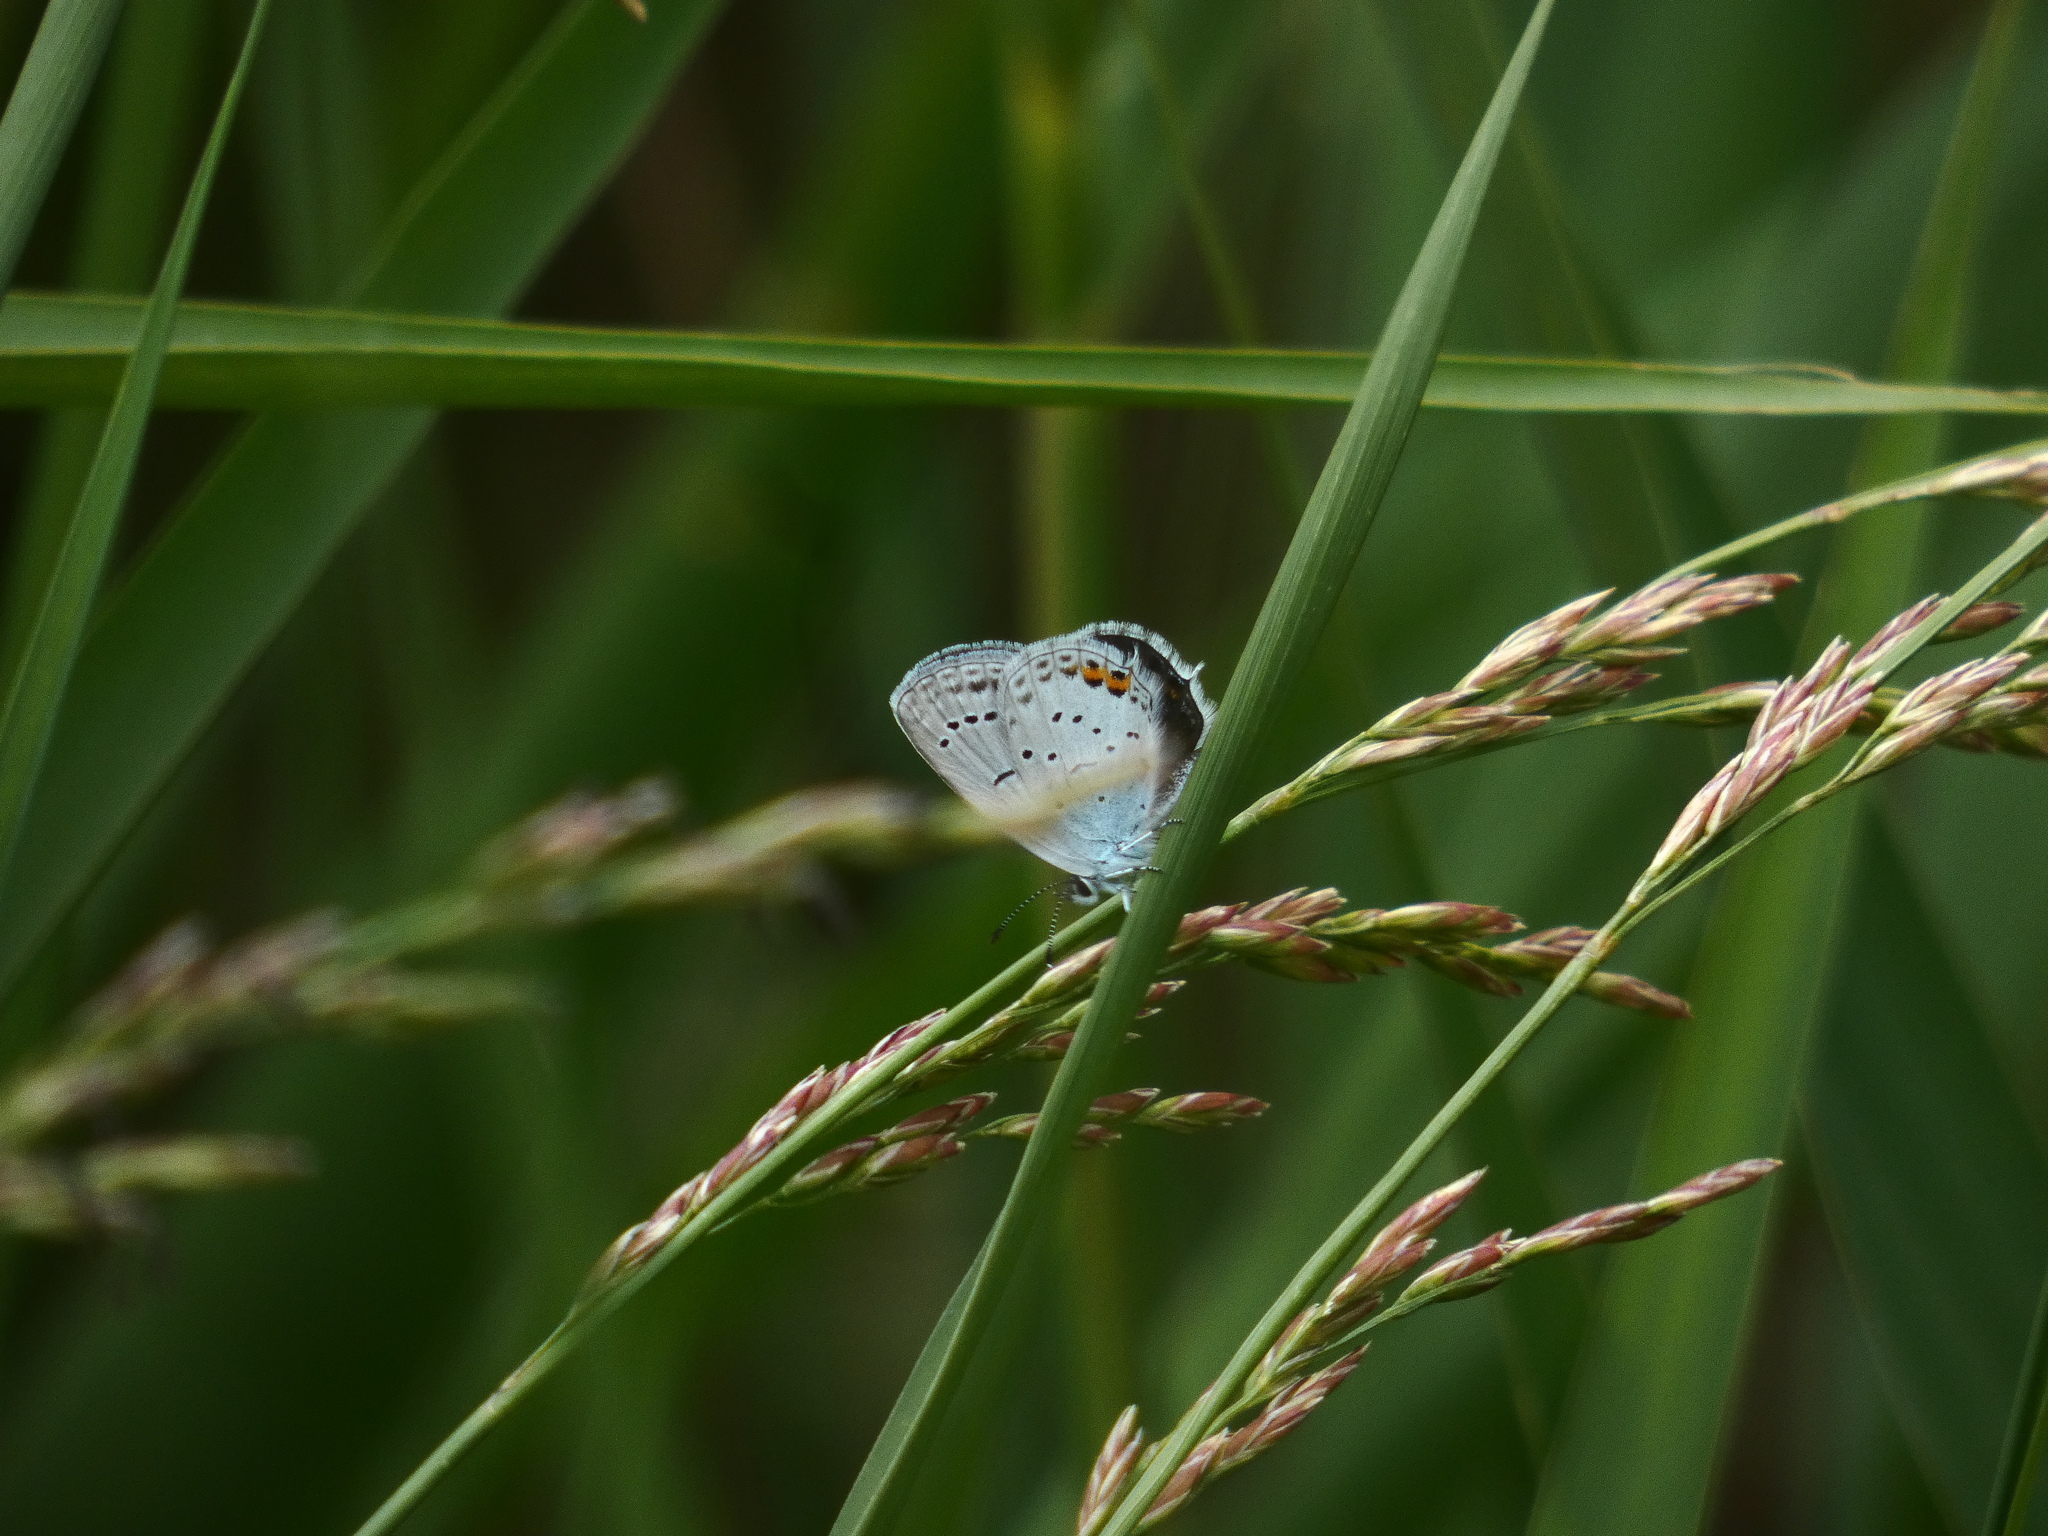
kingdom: Animalia
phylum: Arthropoda
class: Insecta
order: Lepidoptera
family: Lycaenidae
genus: Elkalyce
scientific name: Elkalyce argiades
